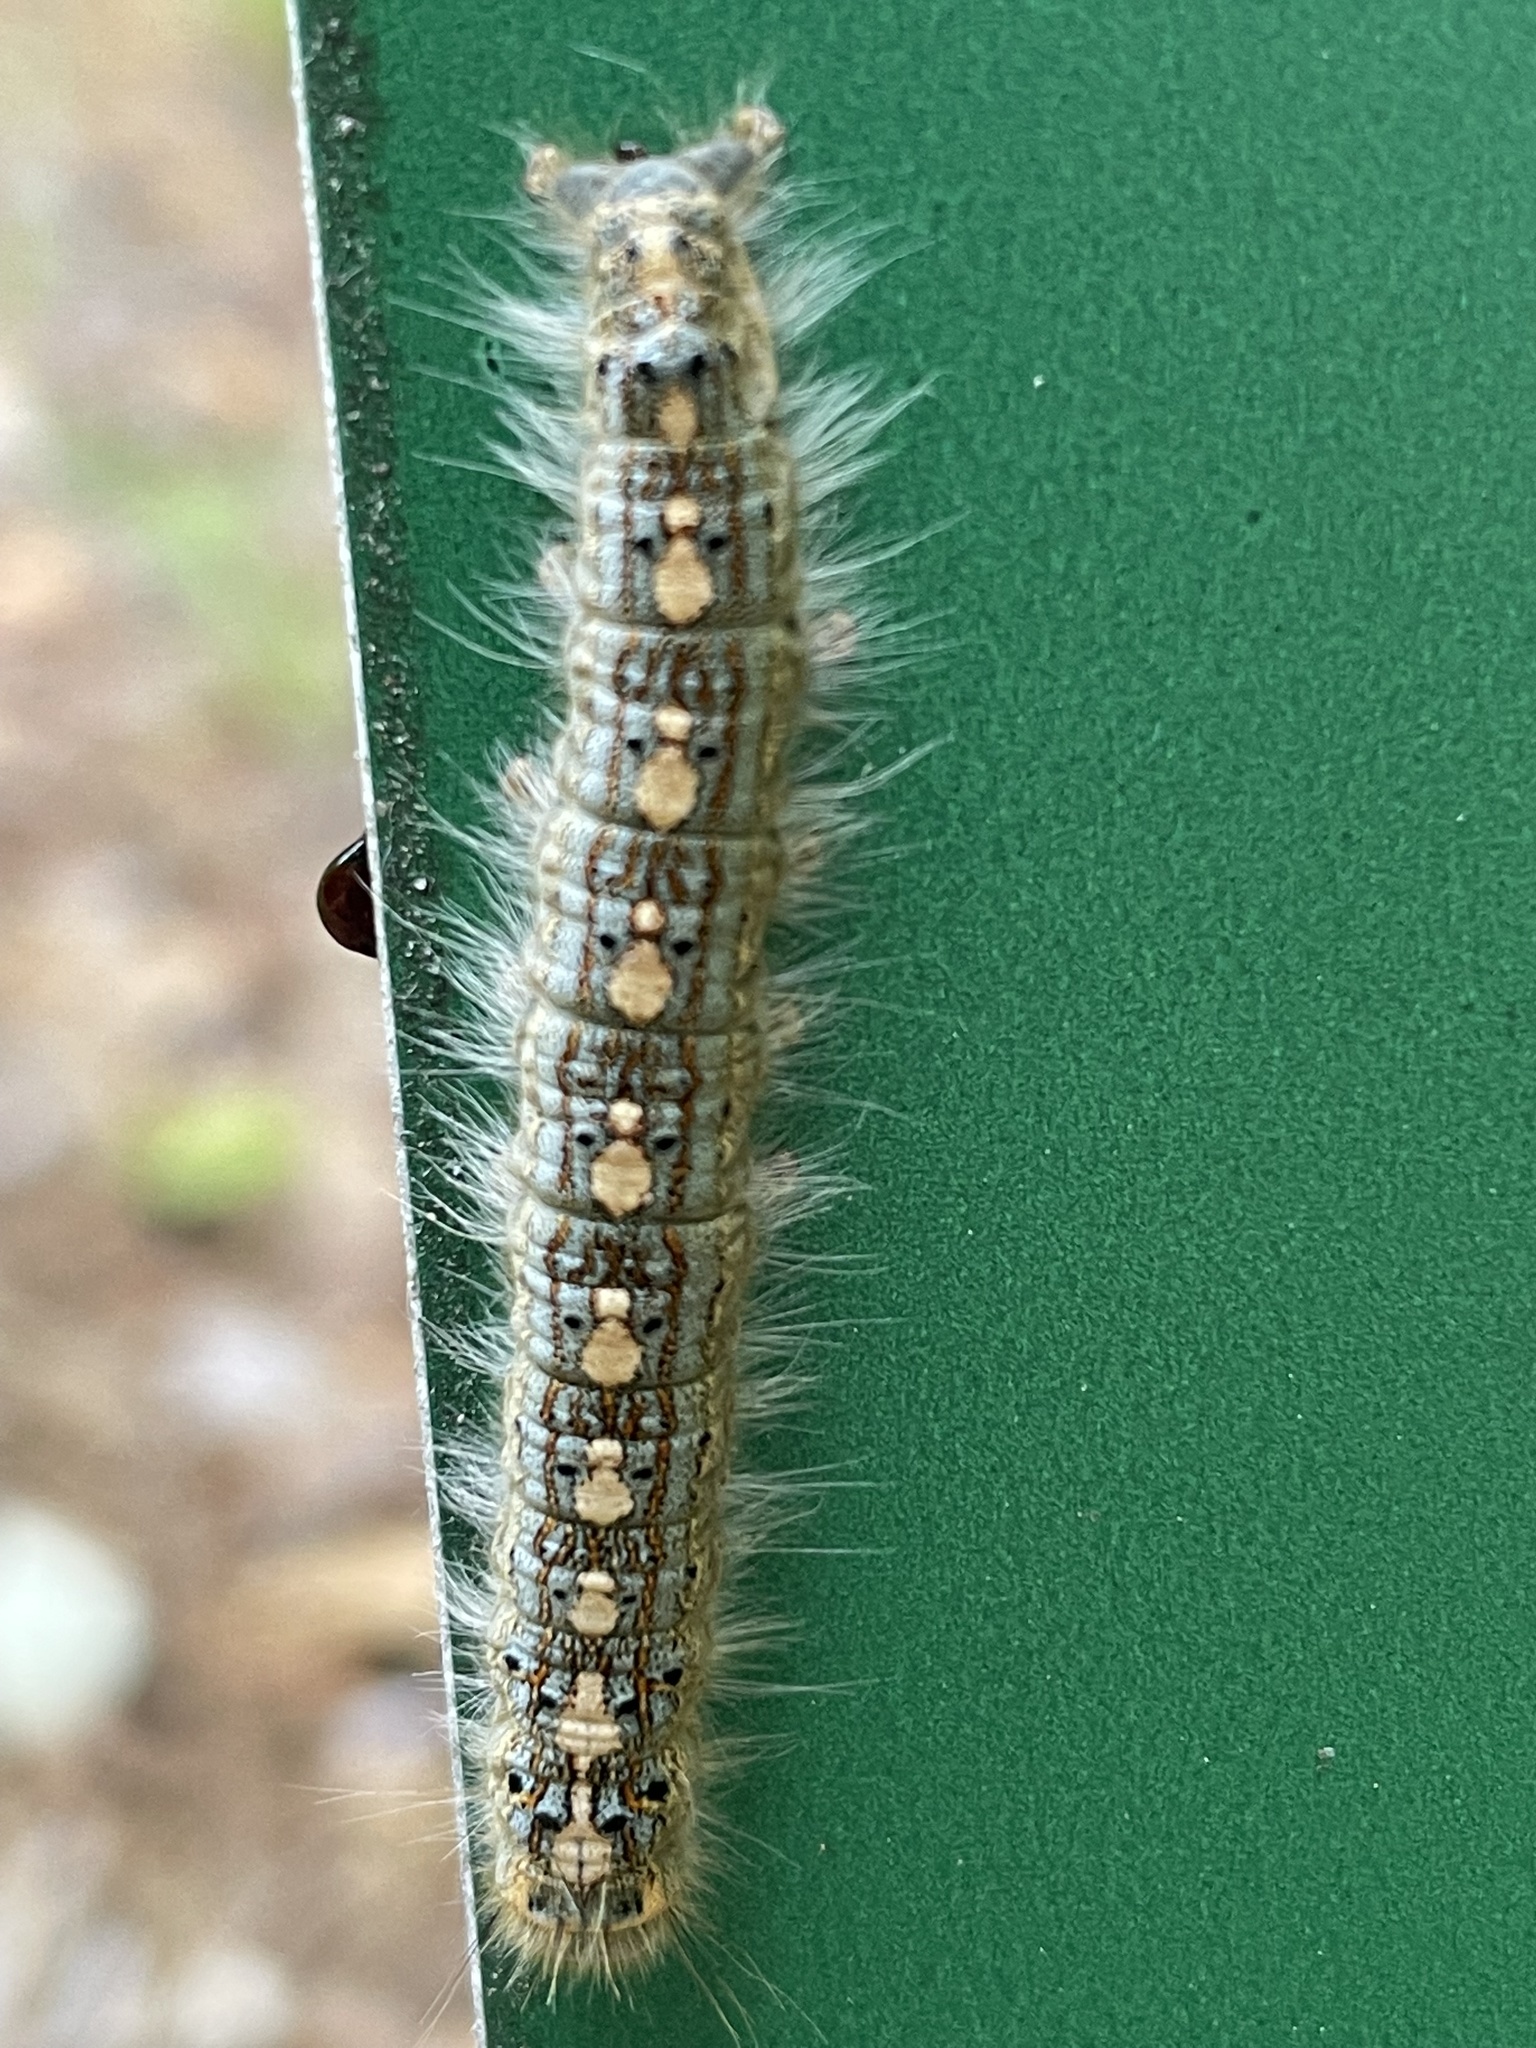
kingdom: Animalia
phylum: Arthropoda
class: Insecta
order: Lepidoptera
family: Lasiocampidae
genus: Malacosoma
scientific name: Malacosoma disstria
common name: Forest tent caterpillar
